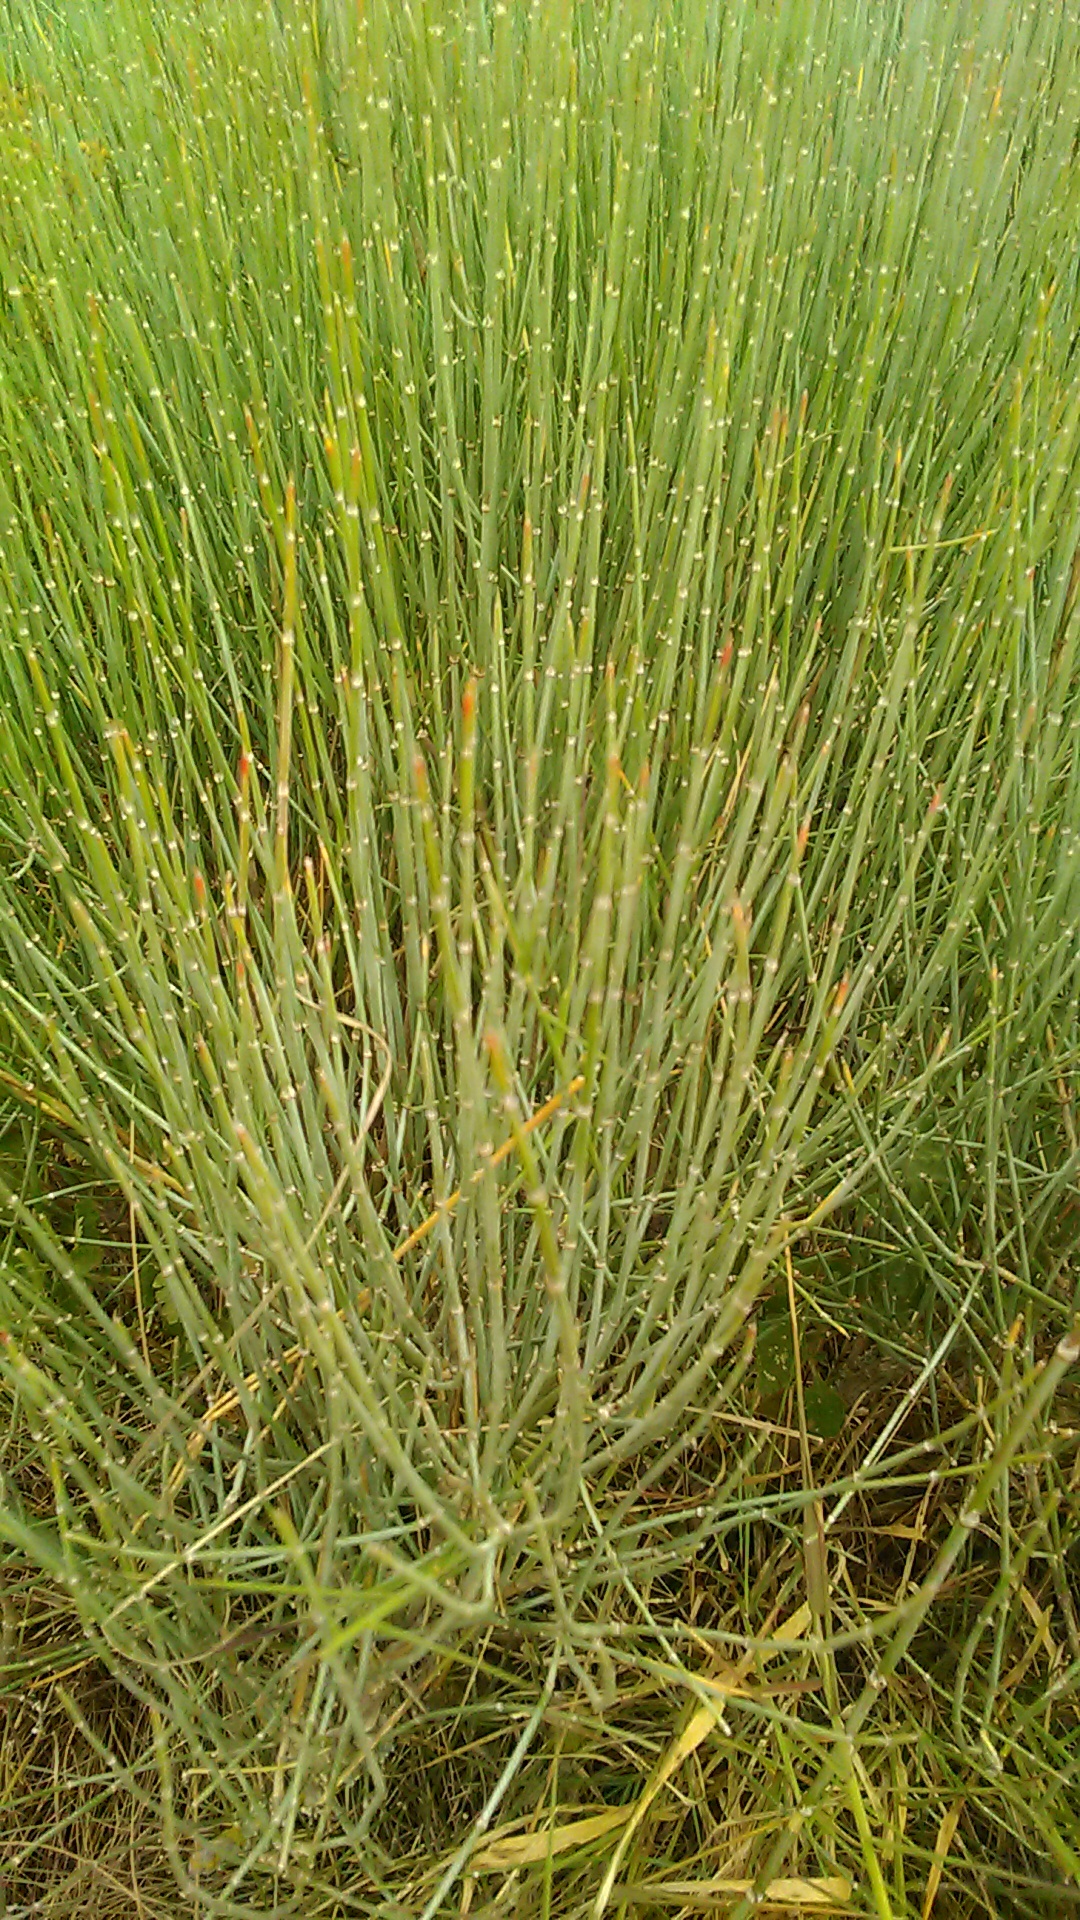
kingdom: Plantae
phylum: Tracheophyta
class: Gnetopsida
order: Ephedrales
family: Ephedraceae
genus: Ephedra
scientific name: Ephedra distachya
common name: Sea grape
